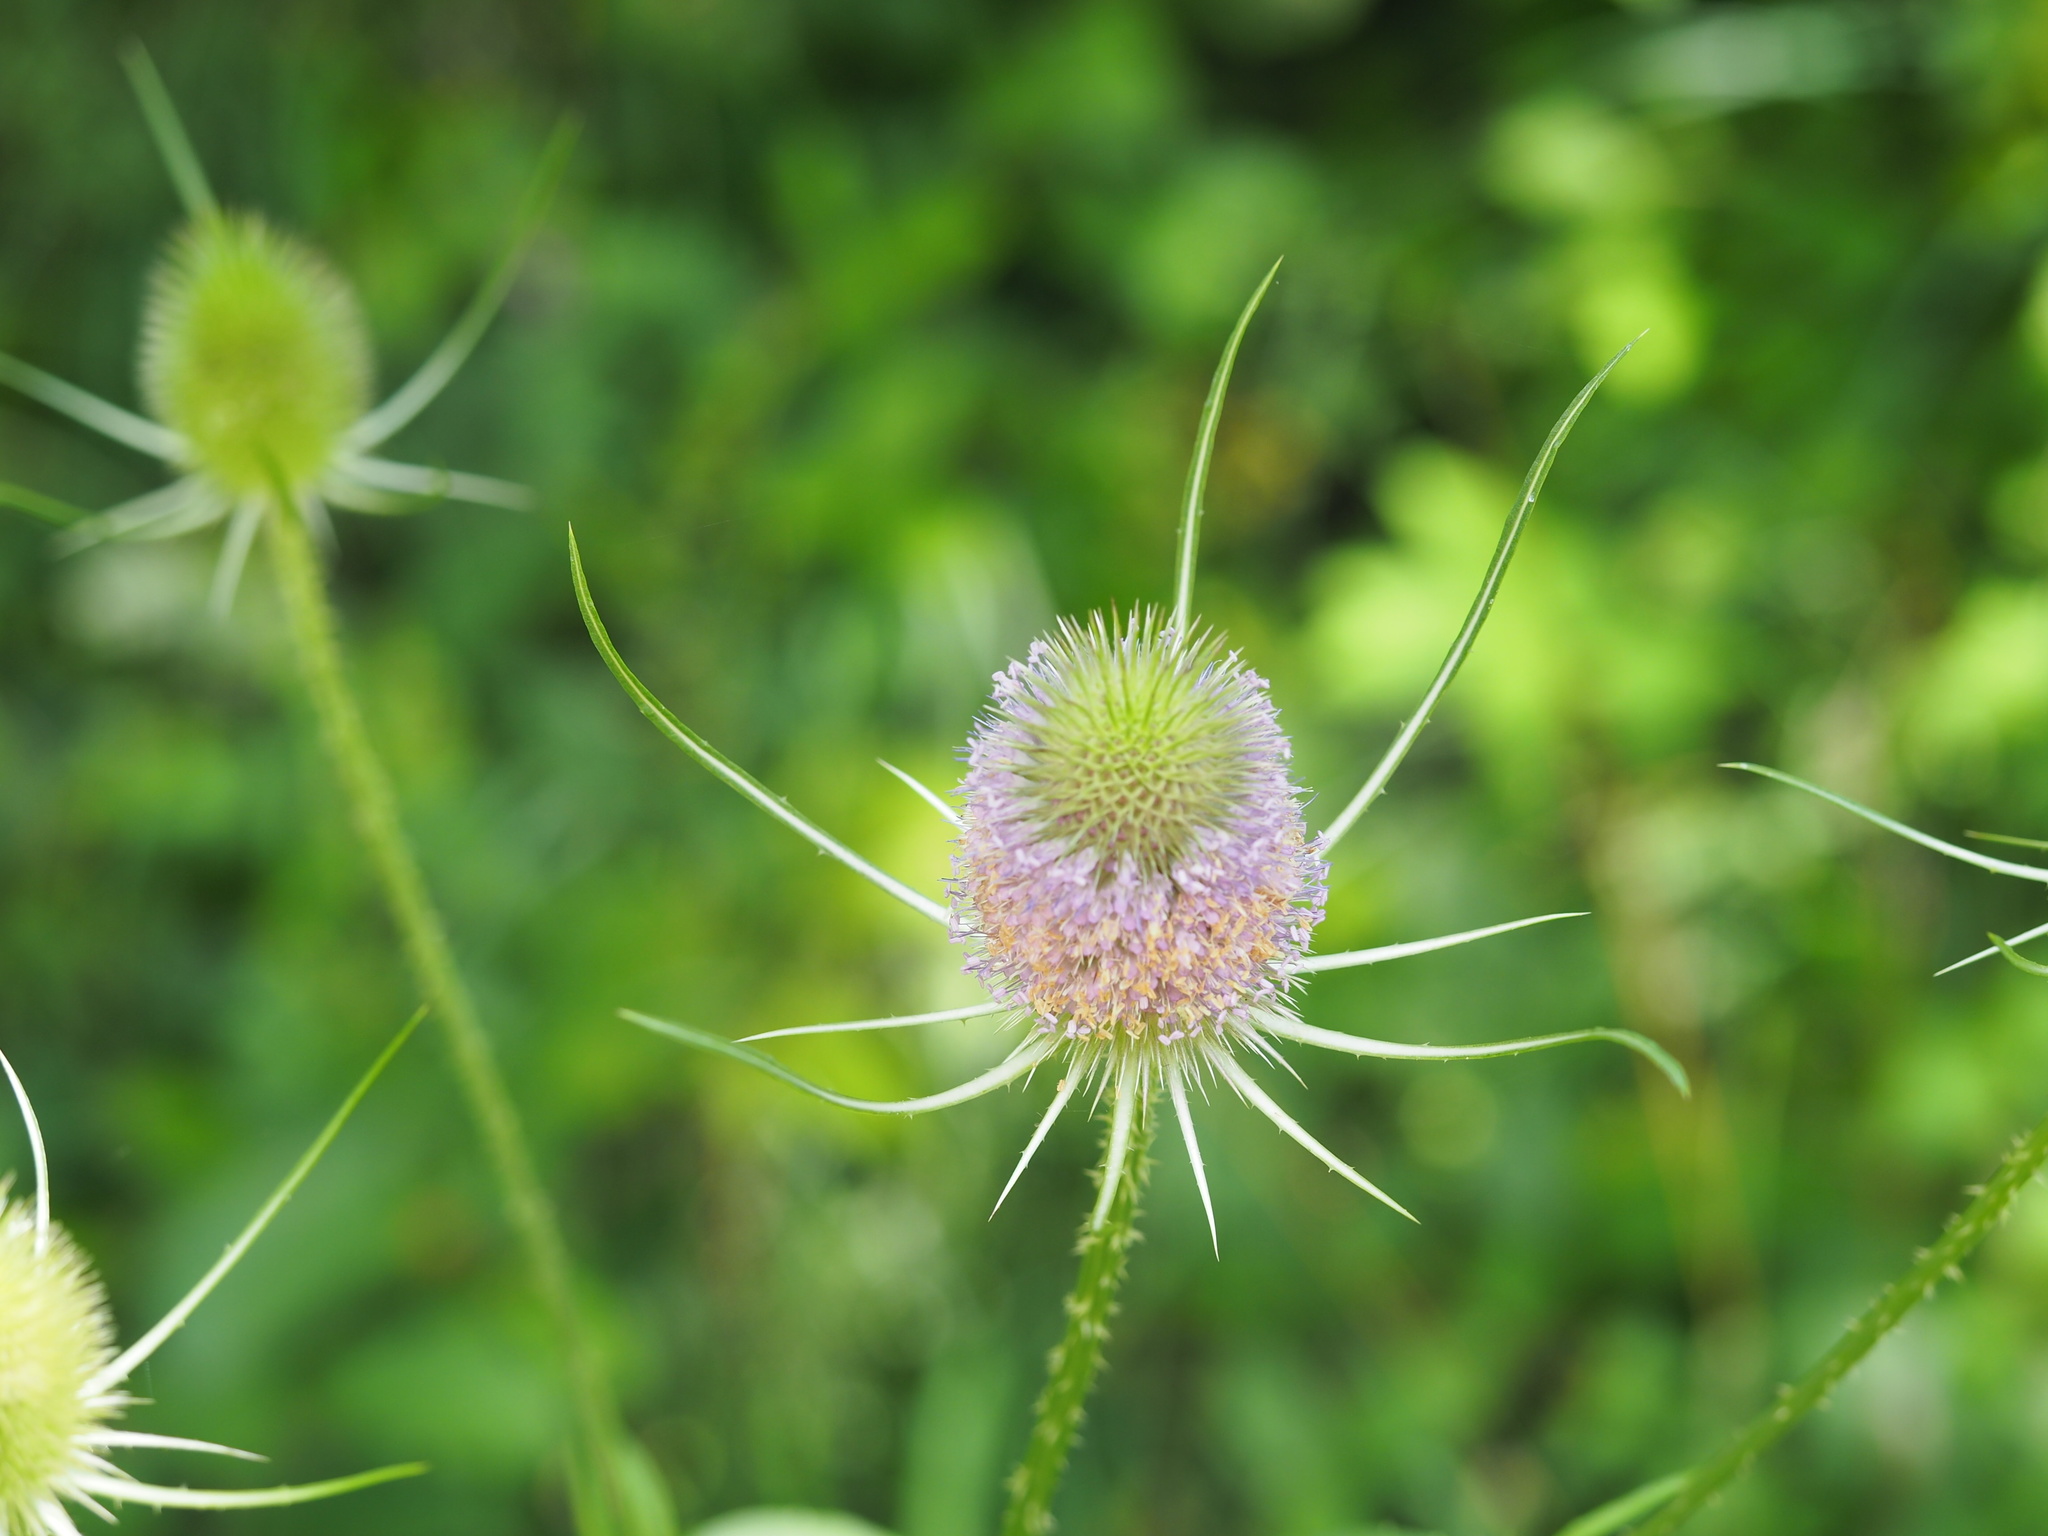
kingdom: Plantae
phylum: Tracheophyta
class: Magnoliopsida
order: Dipsacales
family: Caprifoliaceae
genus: Dipsacus
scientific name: Dipsacus fullonum
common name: Teasel
